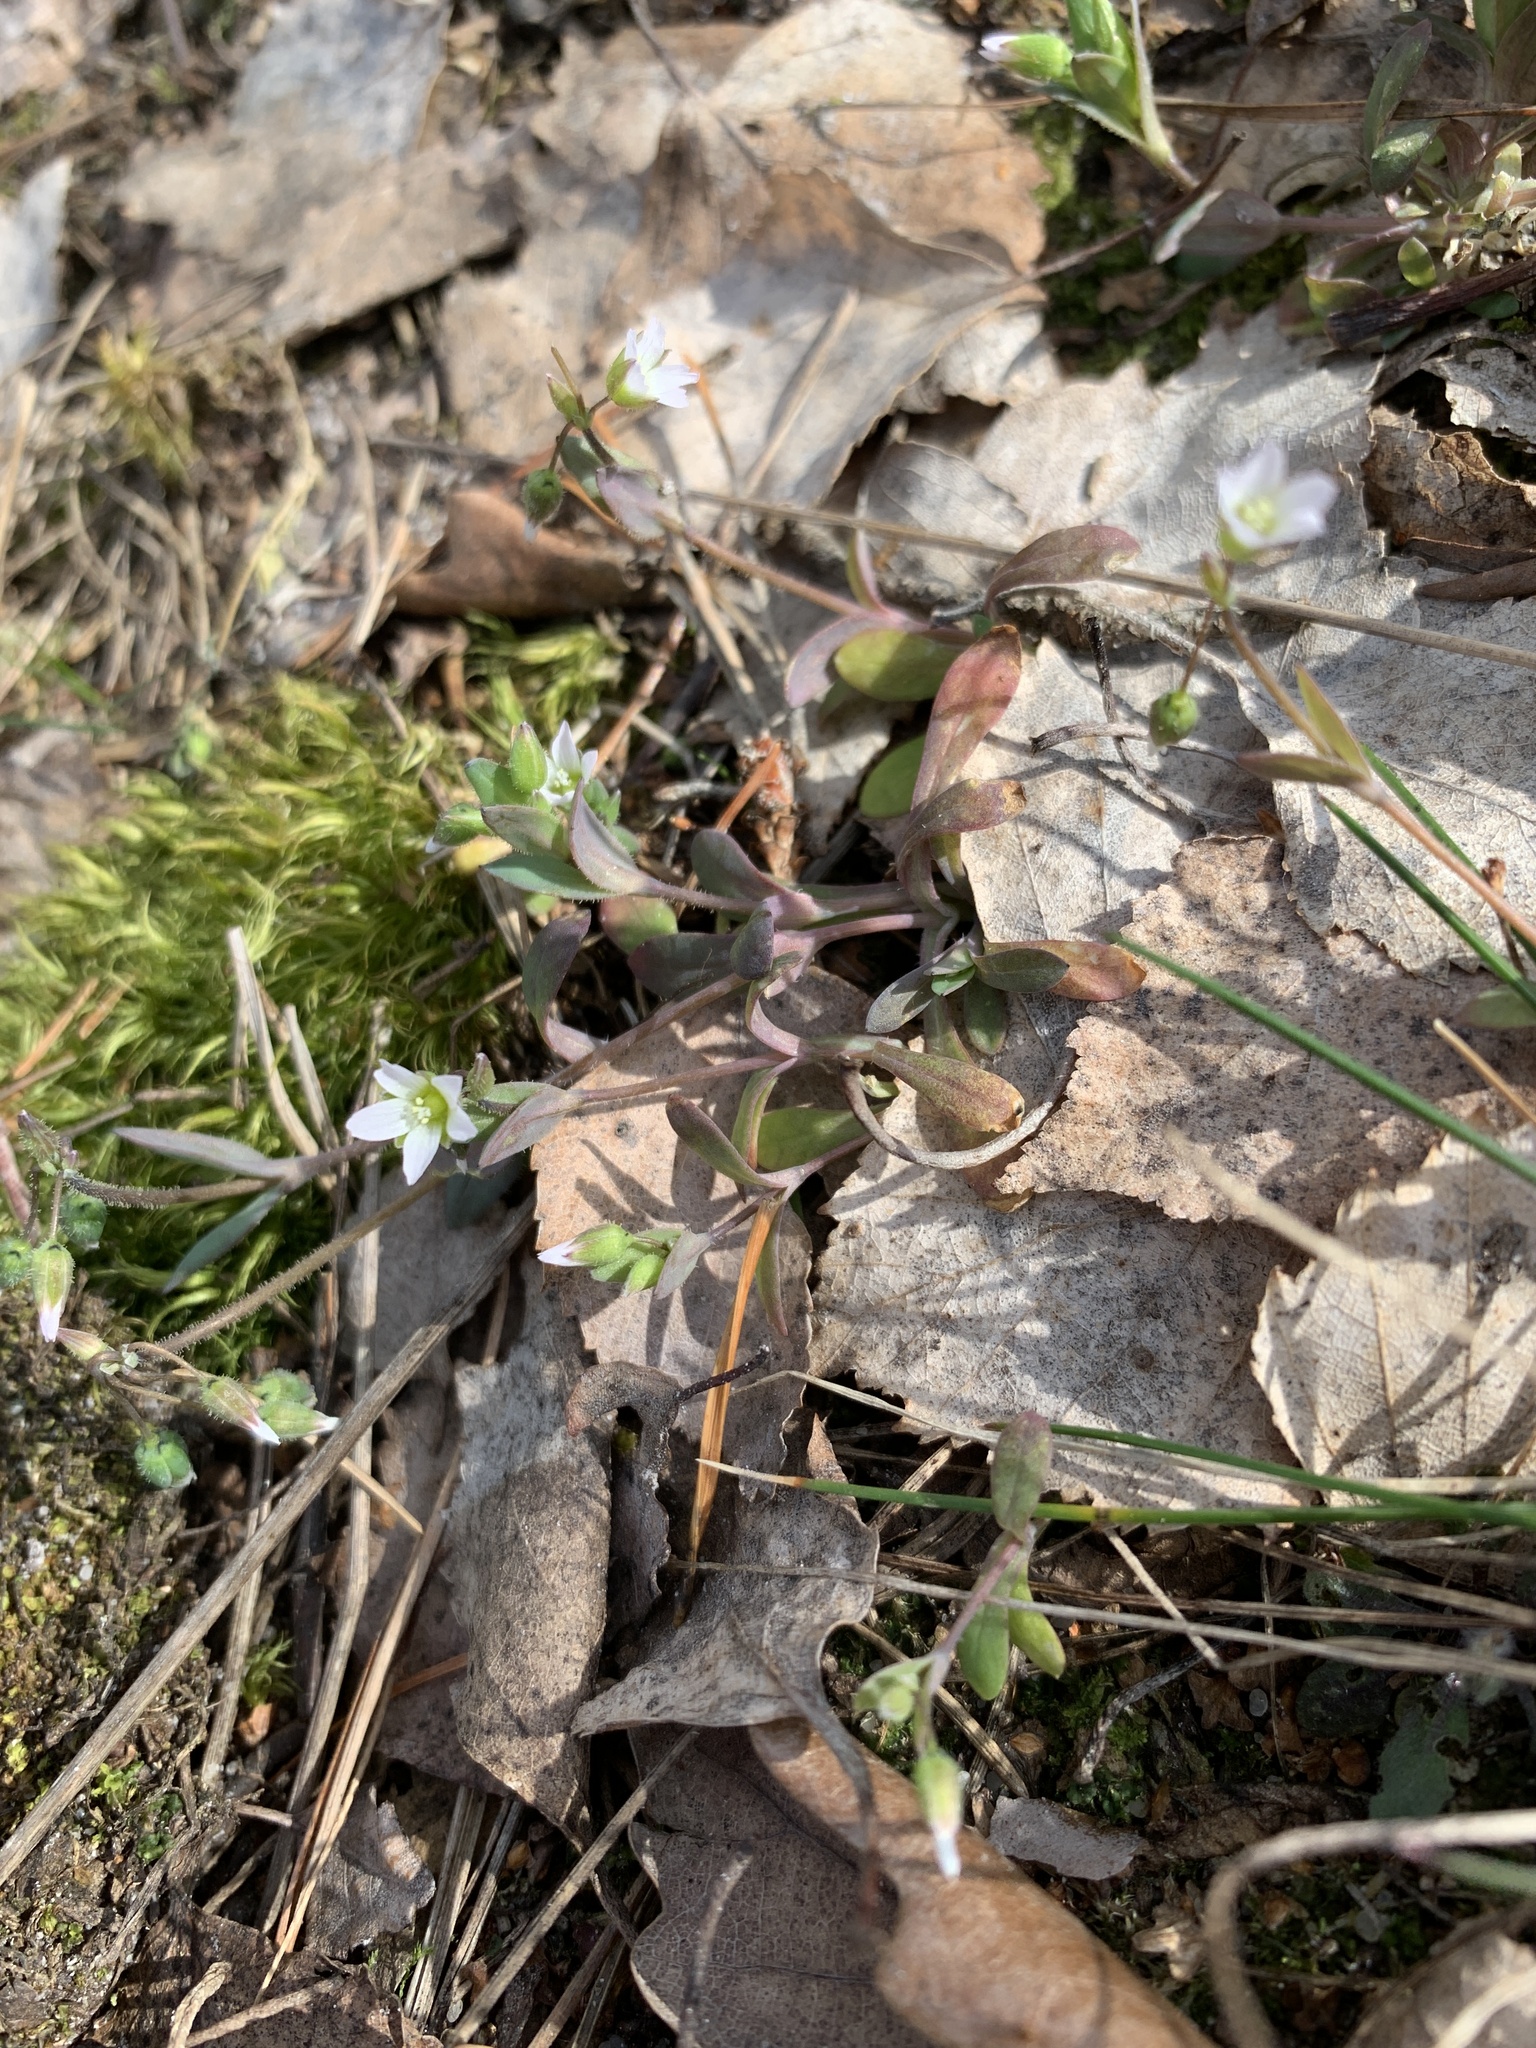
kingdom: Plantae
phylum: Tracheophyta
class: Magnoliopsida
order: Caryophyllales
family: Caryophyllaceae
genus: Holosteum
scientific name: Holosteum umbellatum
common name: Jagged chickweed
